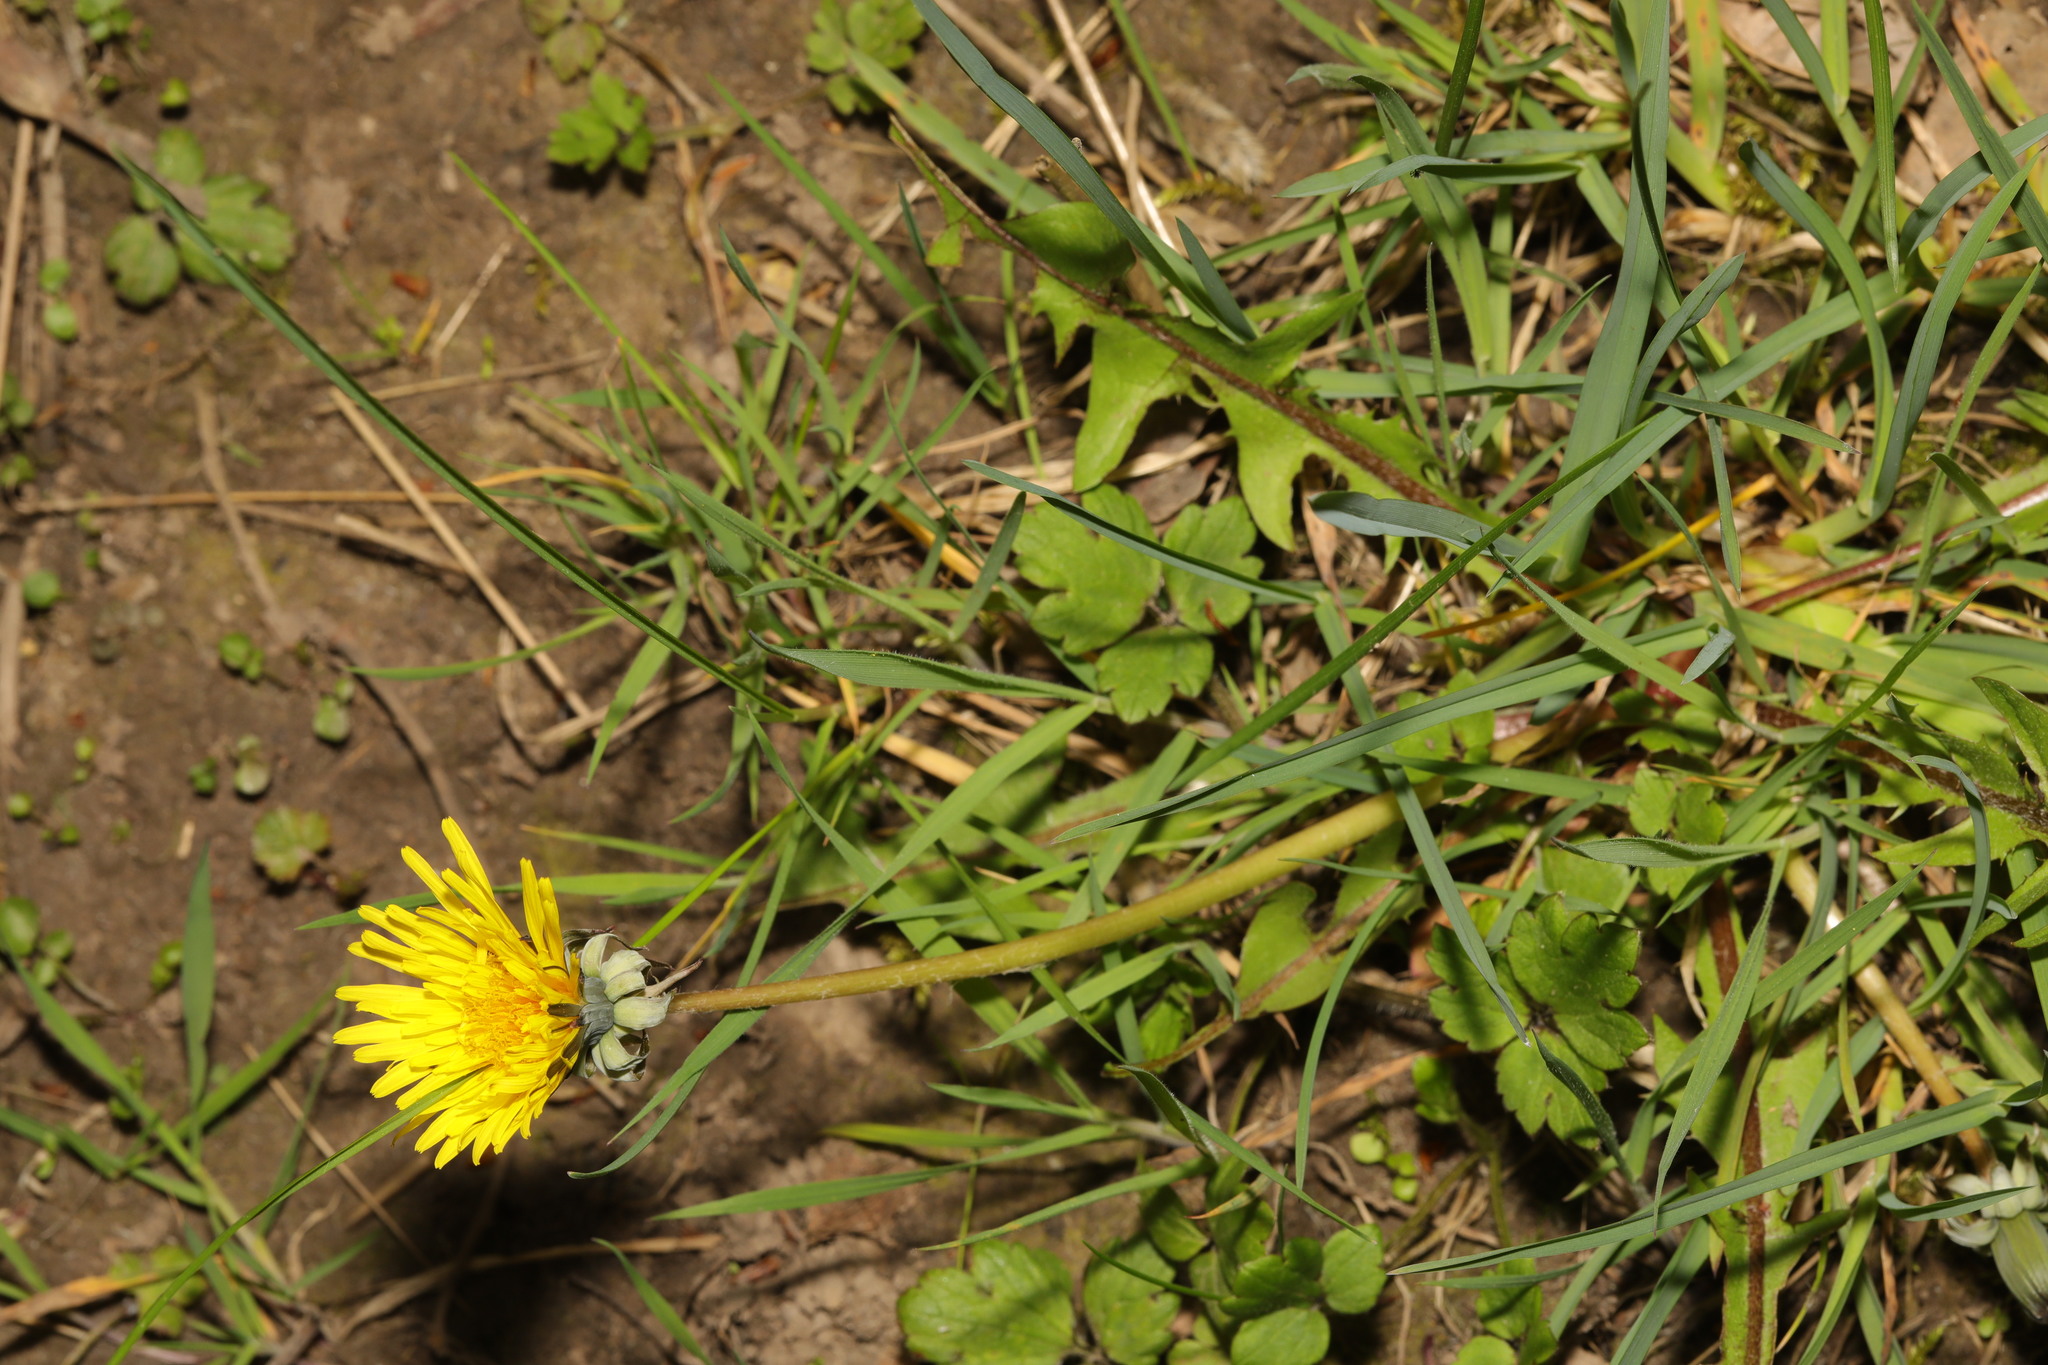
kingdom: Plantae
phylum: Tracheophyta
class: Magnoliopsida
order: Asterales
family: Asteraceae
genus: Taraxacum
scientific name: Taraxacum officinale
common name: Common dandelion
